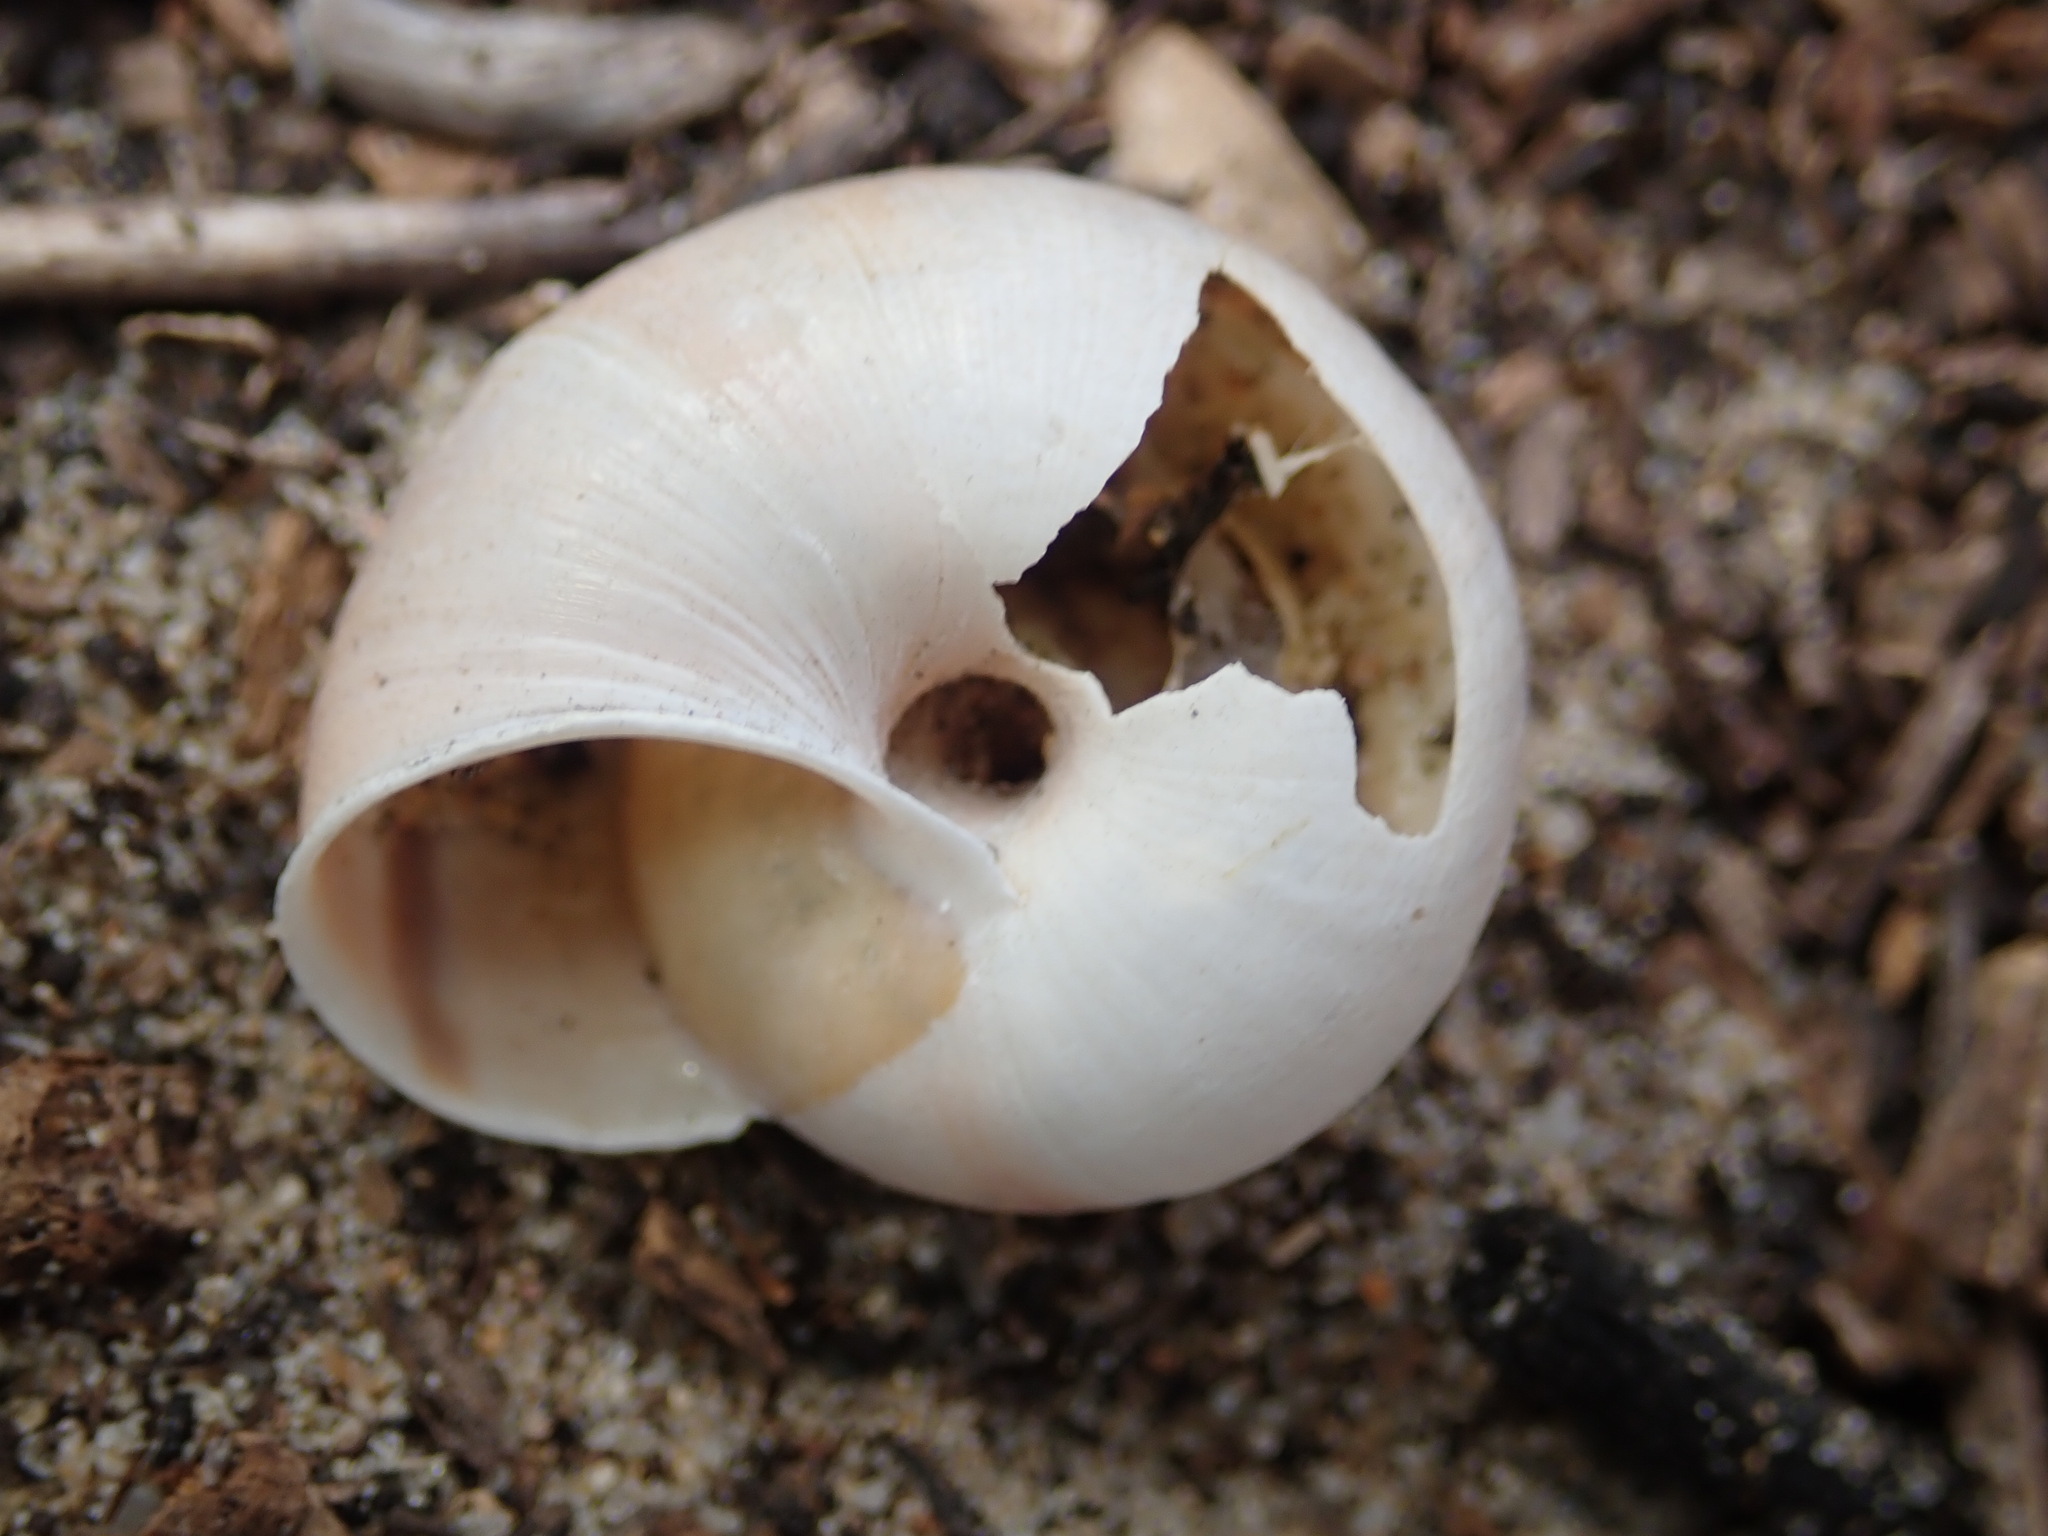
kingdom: Animalia
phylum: Mollusca
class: Gastropoda
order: Stylommatophora
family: Xanthonychidae
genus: Helminthoglypta
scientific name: Helminthoglypta umbilicata
